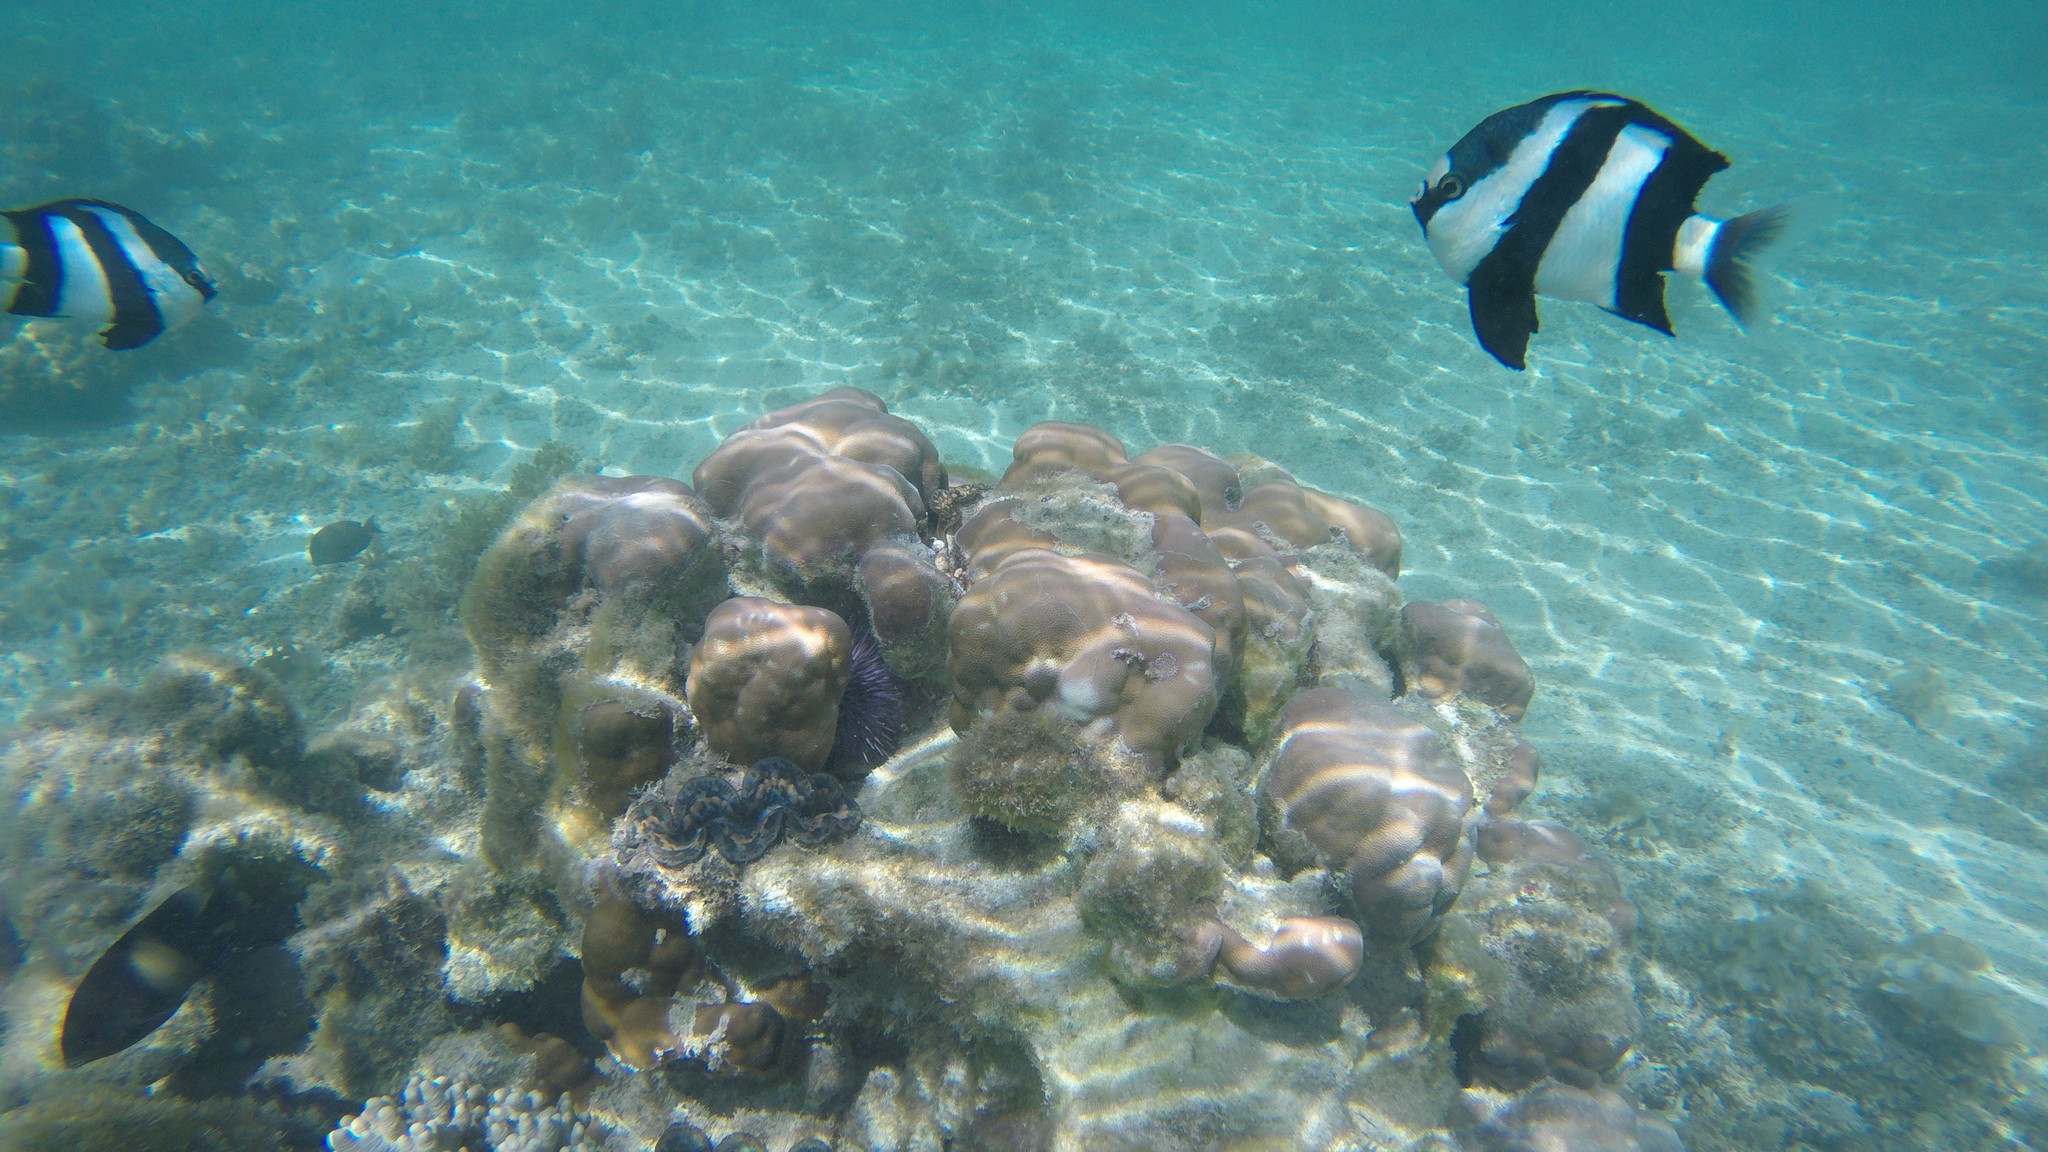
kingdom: Animalia
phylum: Chordata
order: Perciformes
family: Pomacentridae
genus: Dascyllus
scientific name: Dascyllus abudafur
